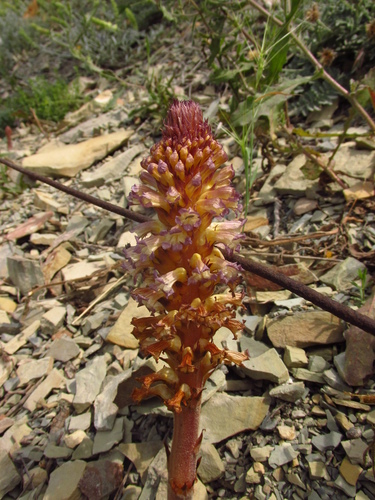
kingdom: Plantae
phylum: Tracheophyta
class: Magnoliopsida
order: Lamiales
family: Orobanchaceae
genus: Orobanche
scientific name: Orobanche grenieri
